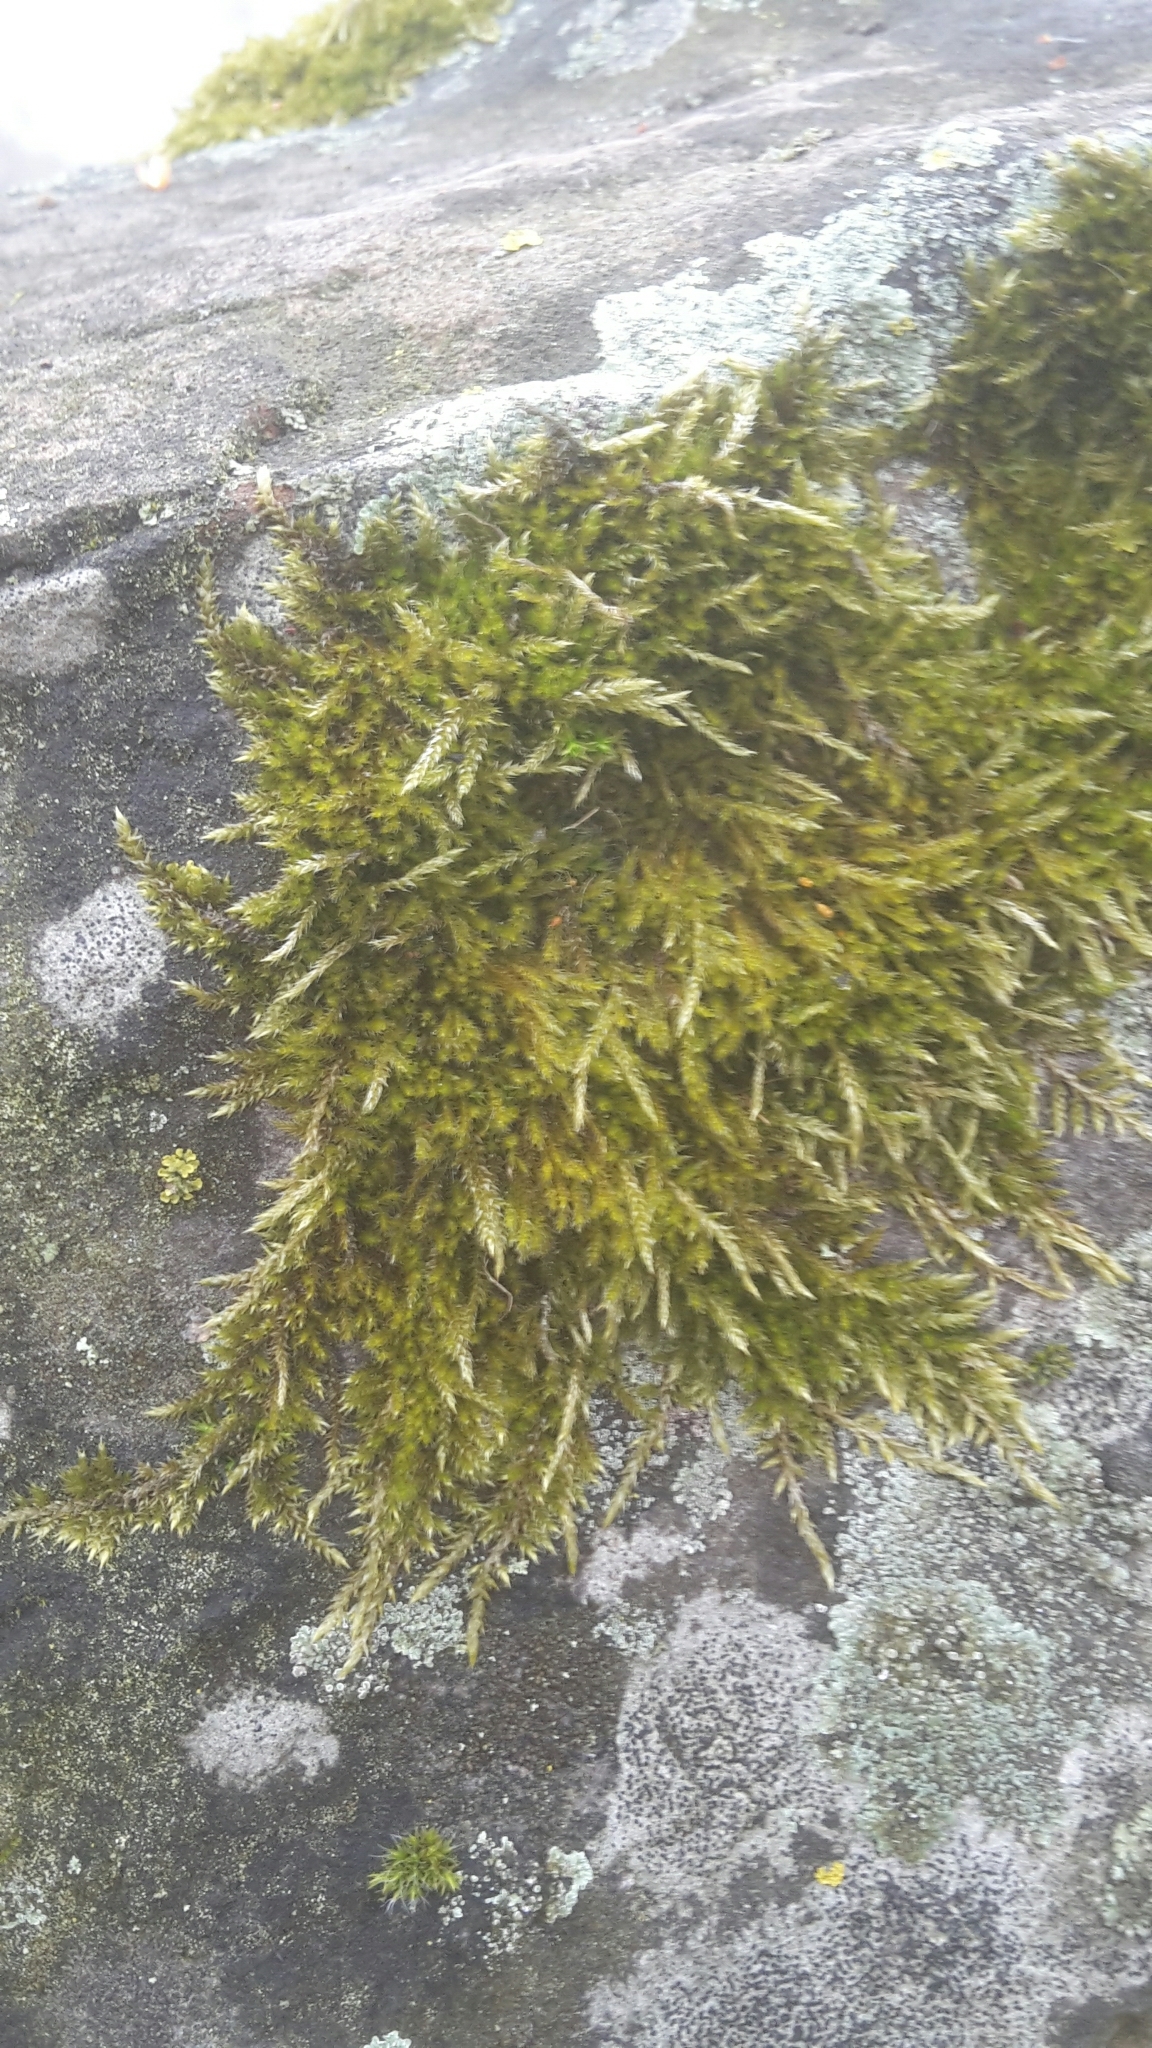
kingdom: Plantae
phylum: Bryophyta
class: Bryopsida
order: Hypnales
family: Hypnaceae
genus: Hypnum
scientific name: Hypnum cupressiforme
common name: Cypress-leaved plait-moss
